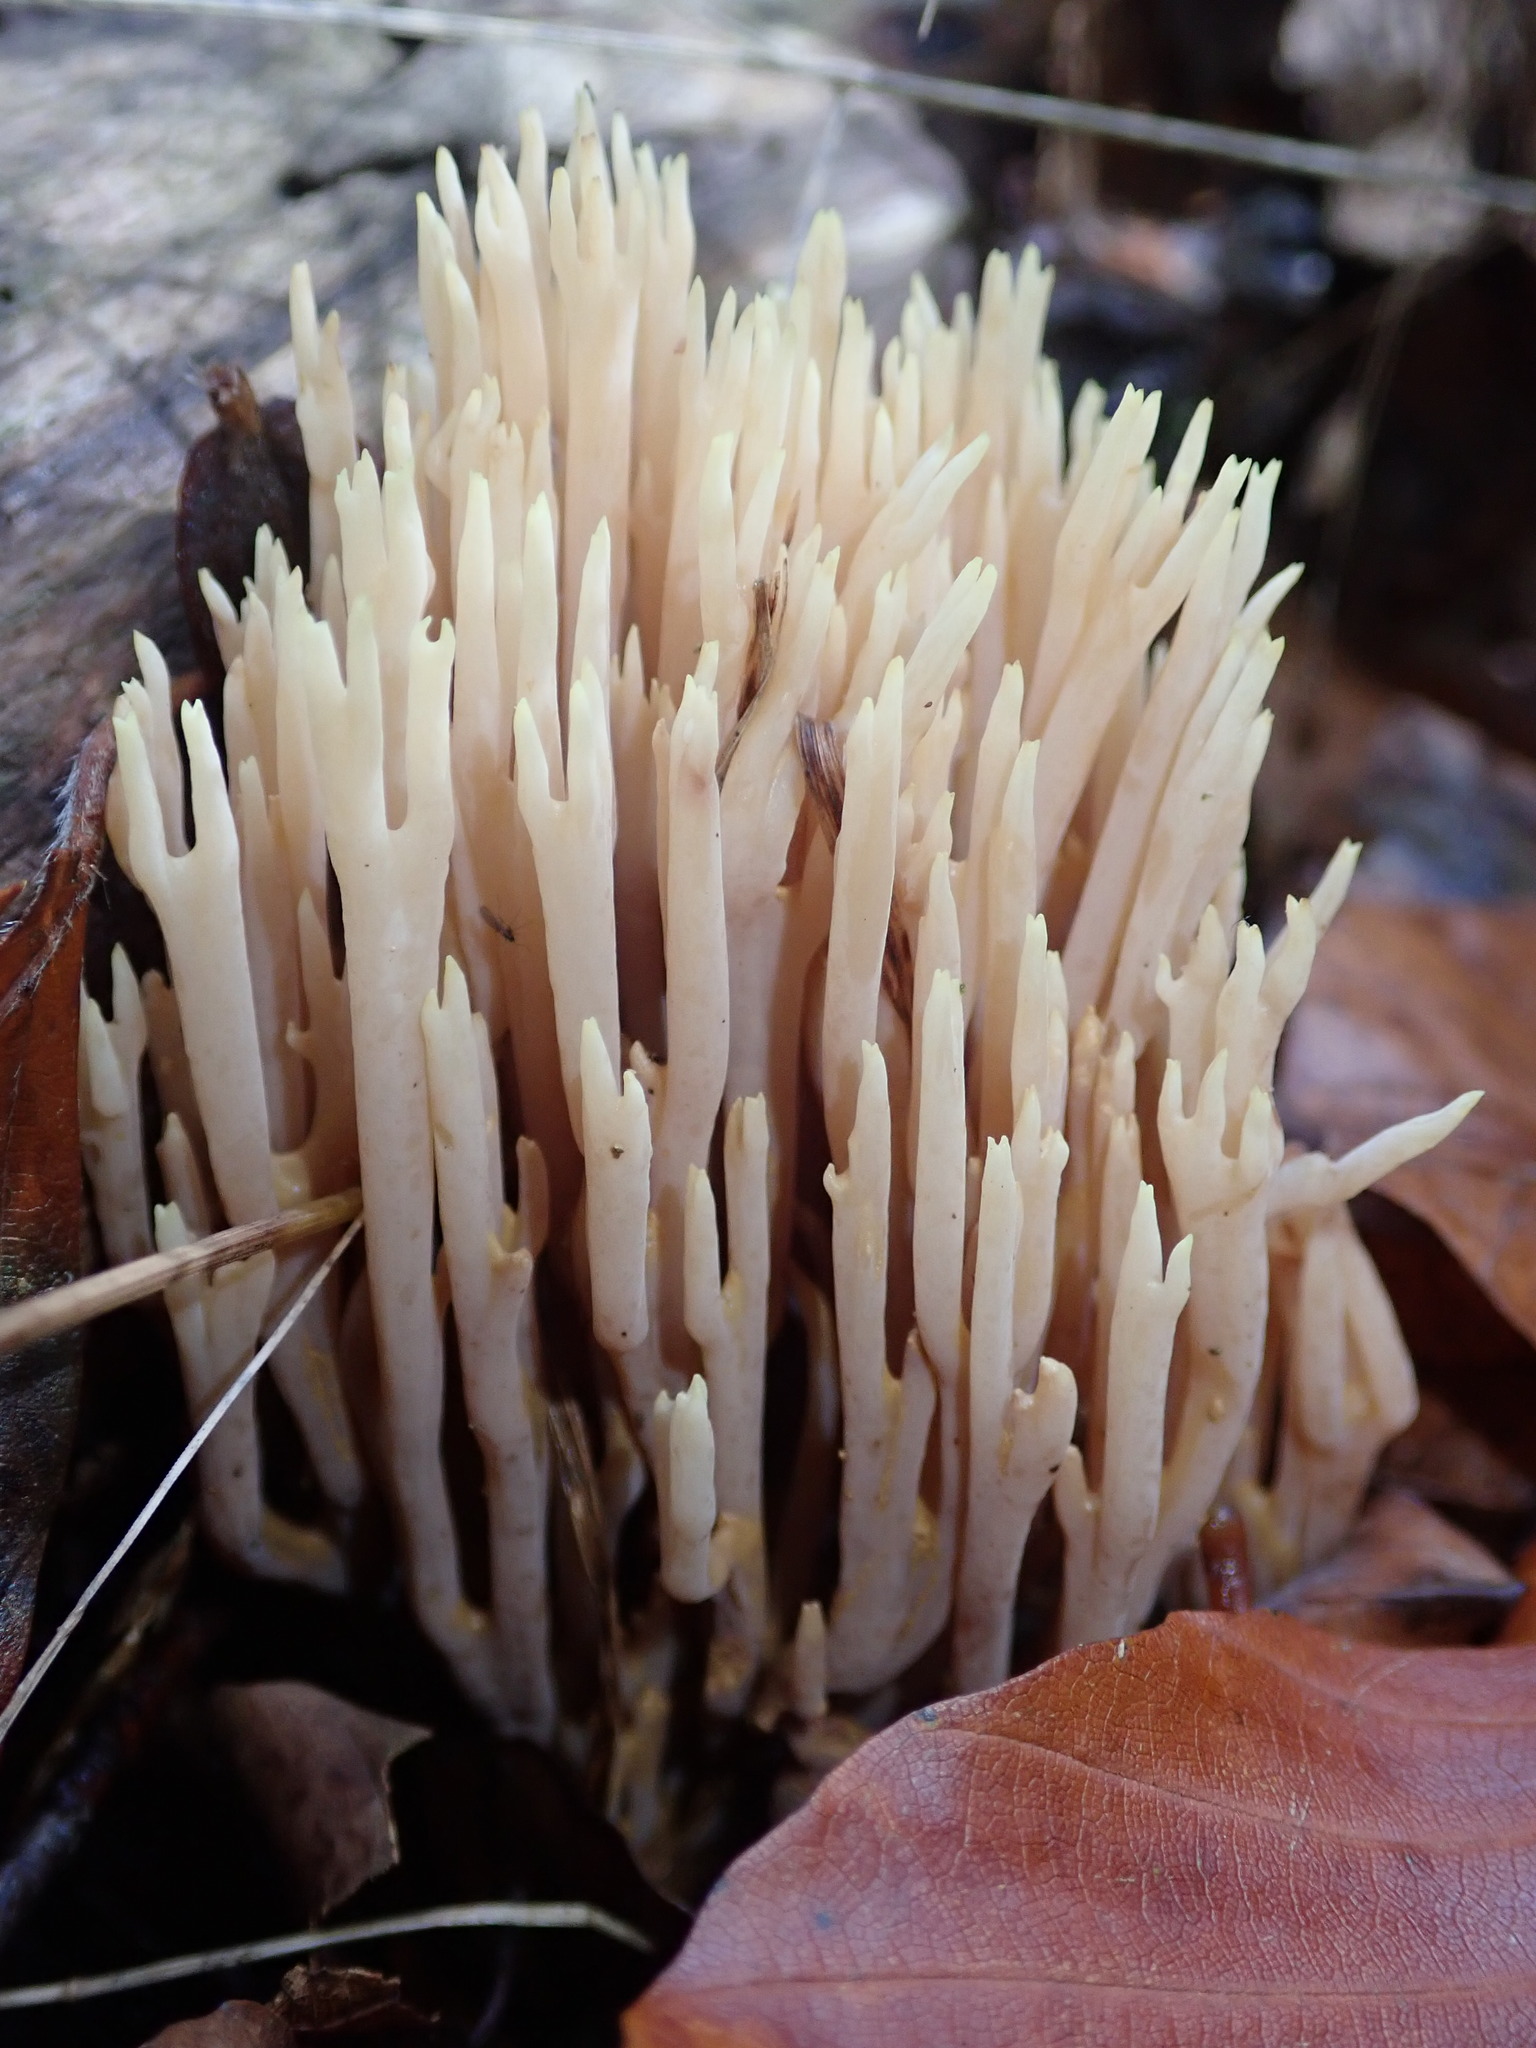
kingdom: Fungi
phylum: Basidiomycota
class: Agaricomycetes
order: Gomphales
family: Gomphaceae
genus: Ramaria
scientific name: Ramaria stricta
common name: Upright coral
